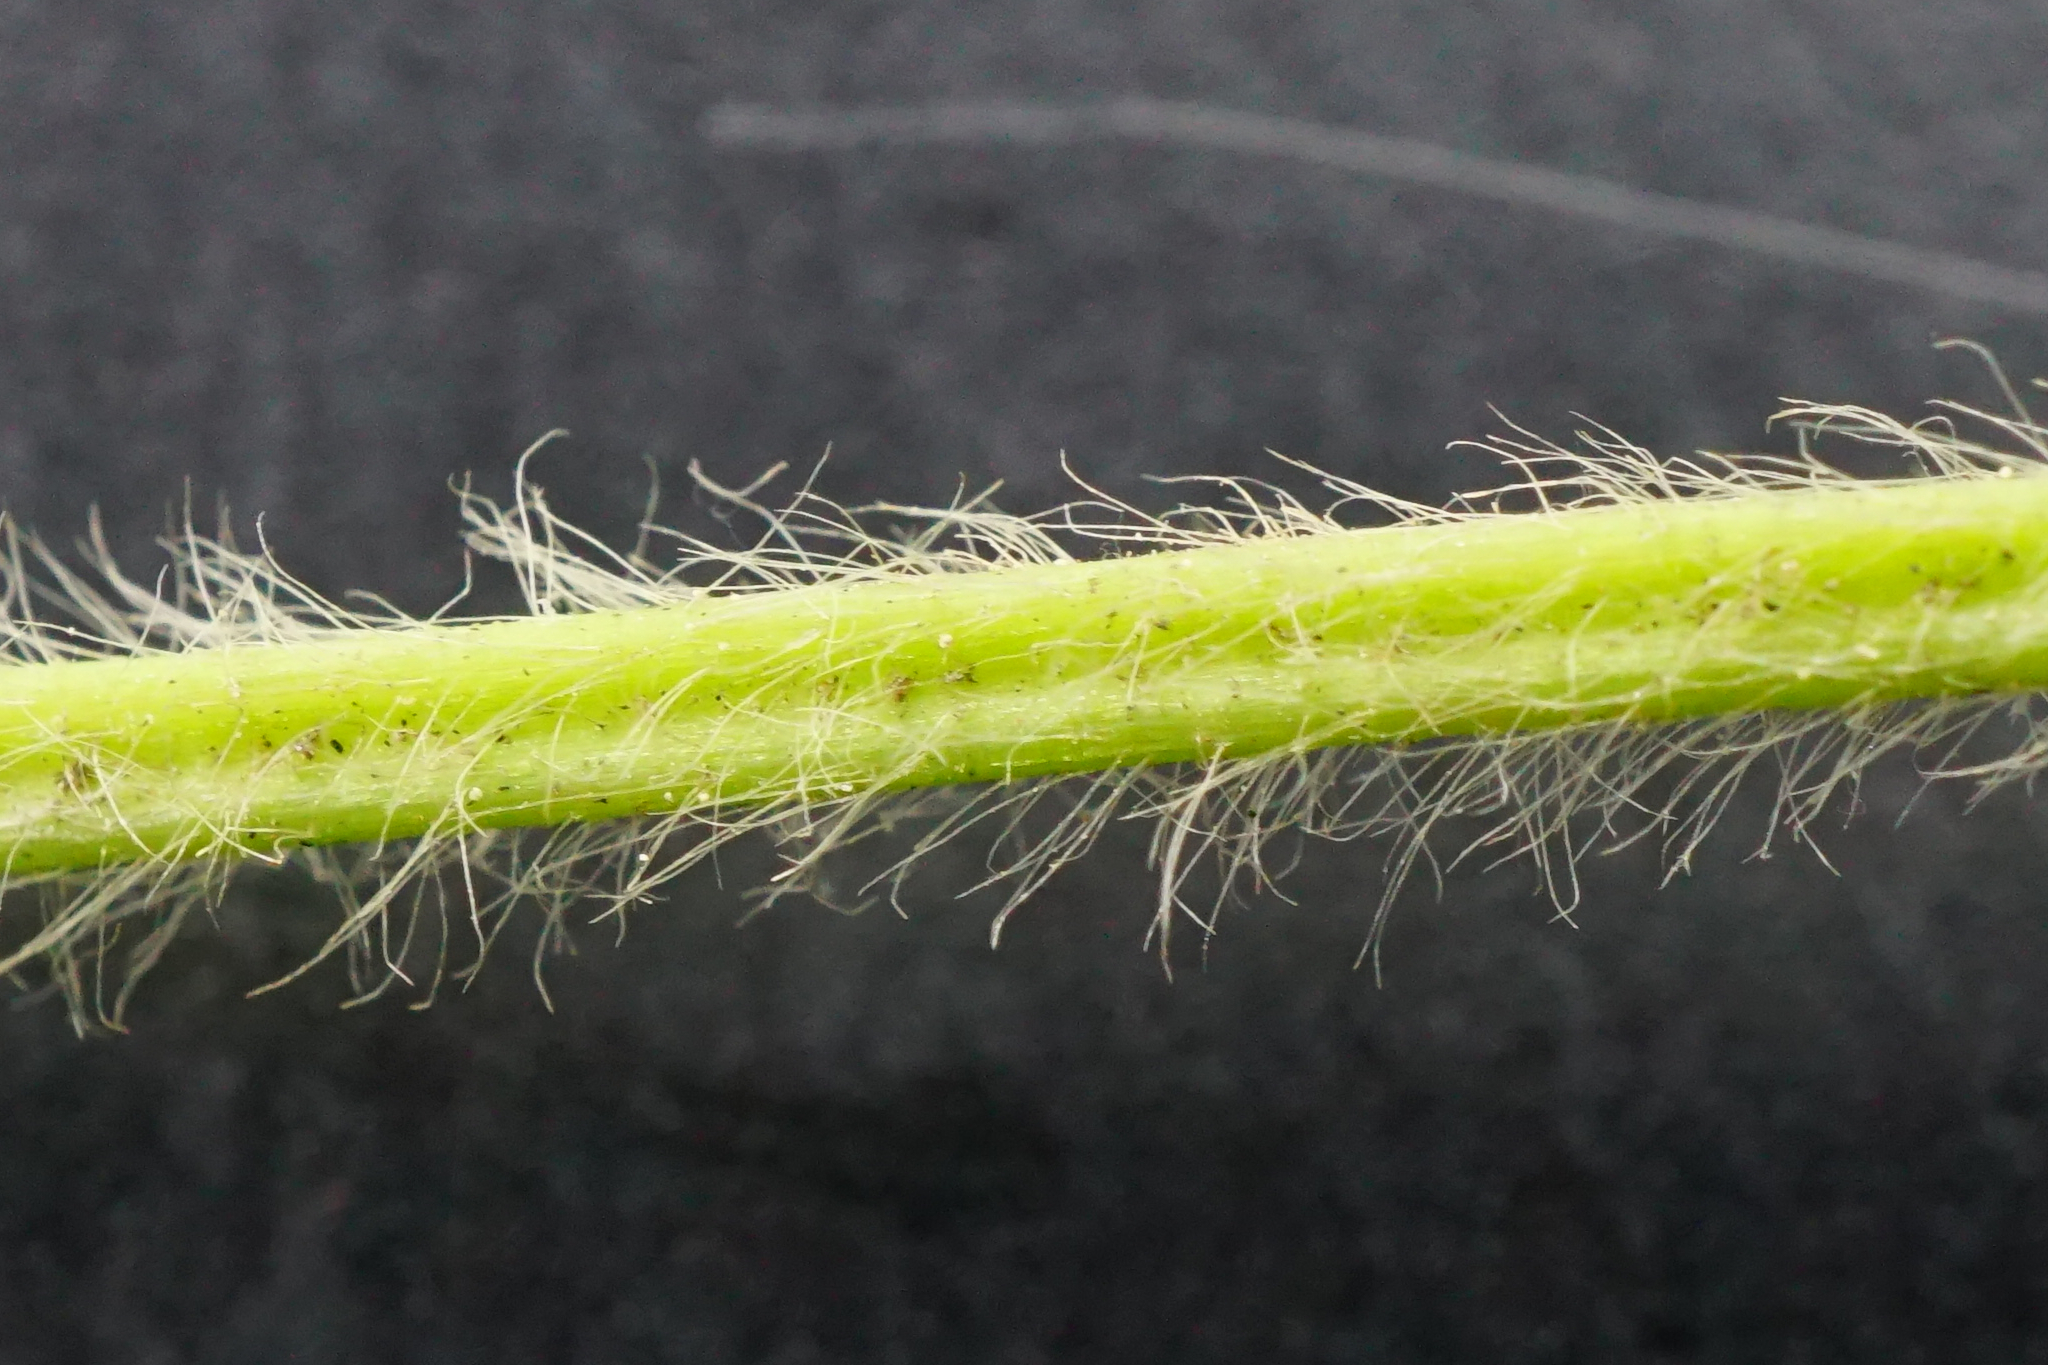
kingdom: Plantae
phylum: Tracheophyta
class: Magnoliopsida
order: Rosales
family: Rosaceae
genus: Fragaria
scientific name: Fragaria viridis
